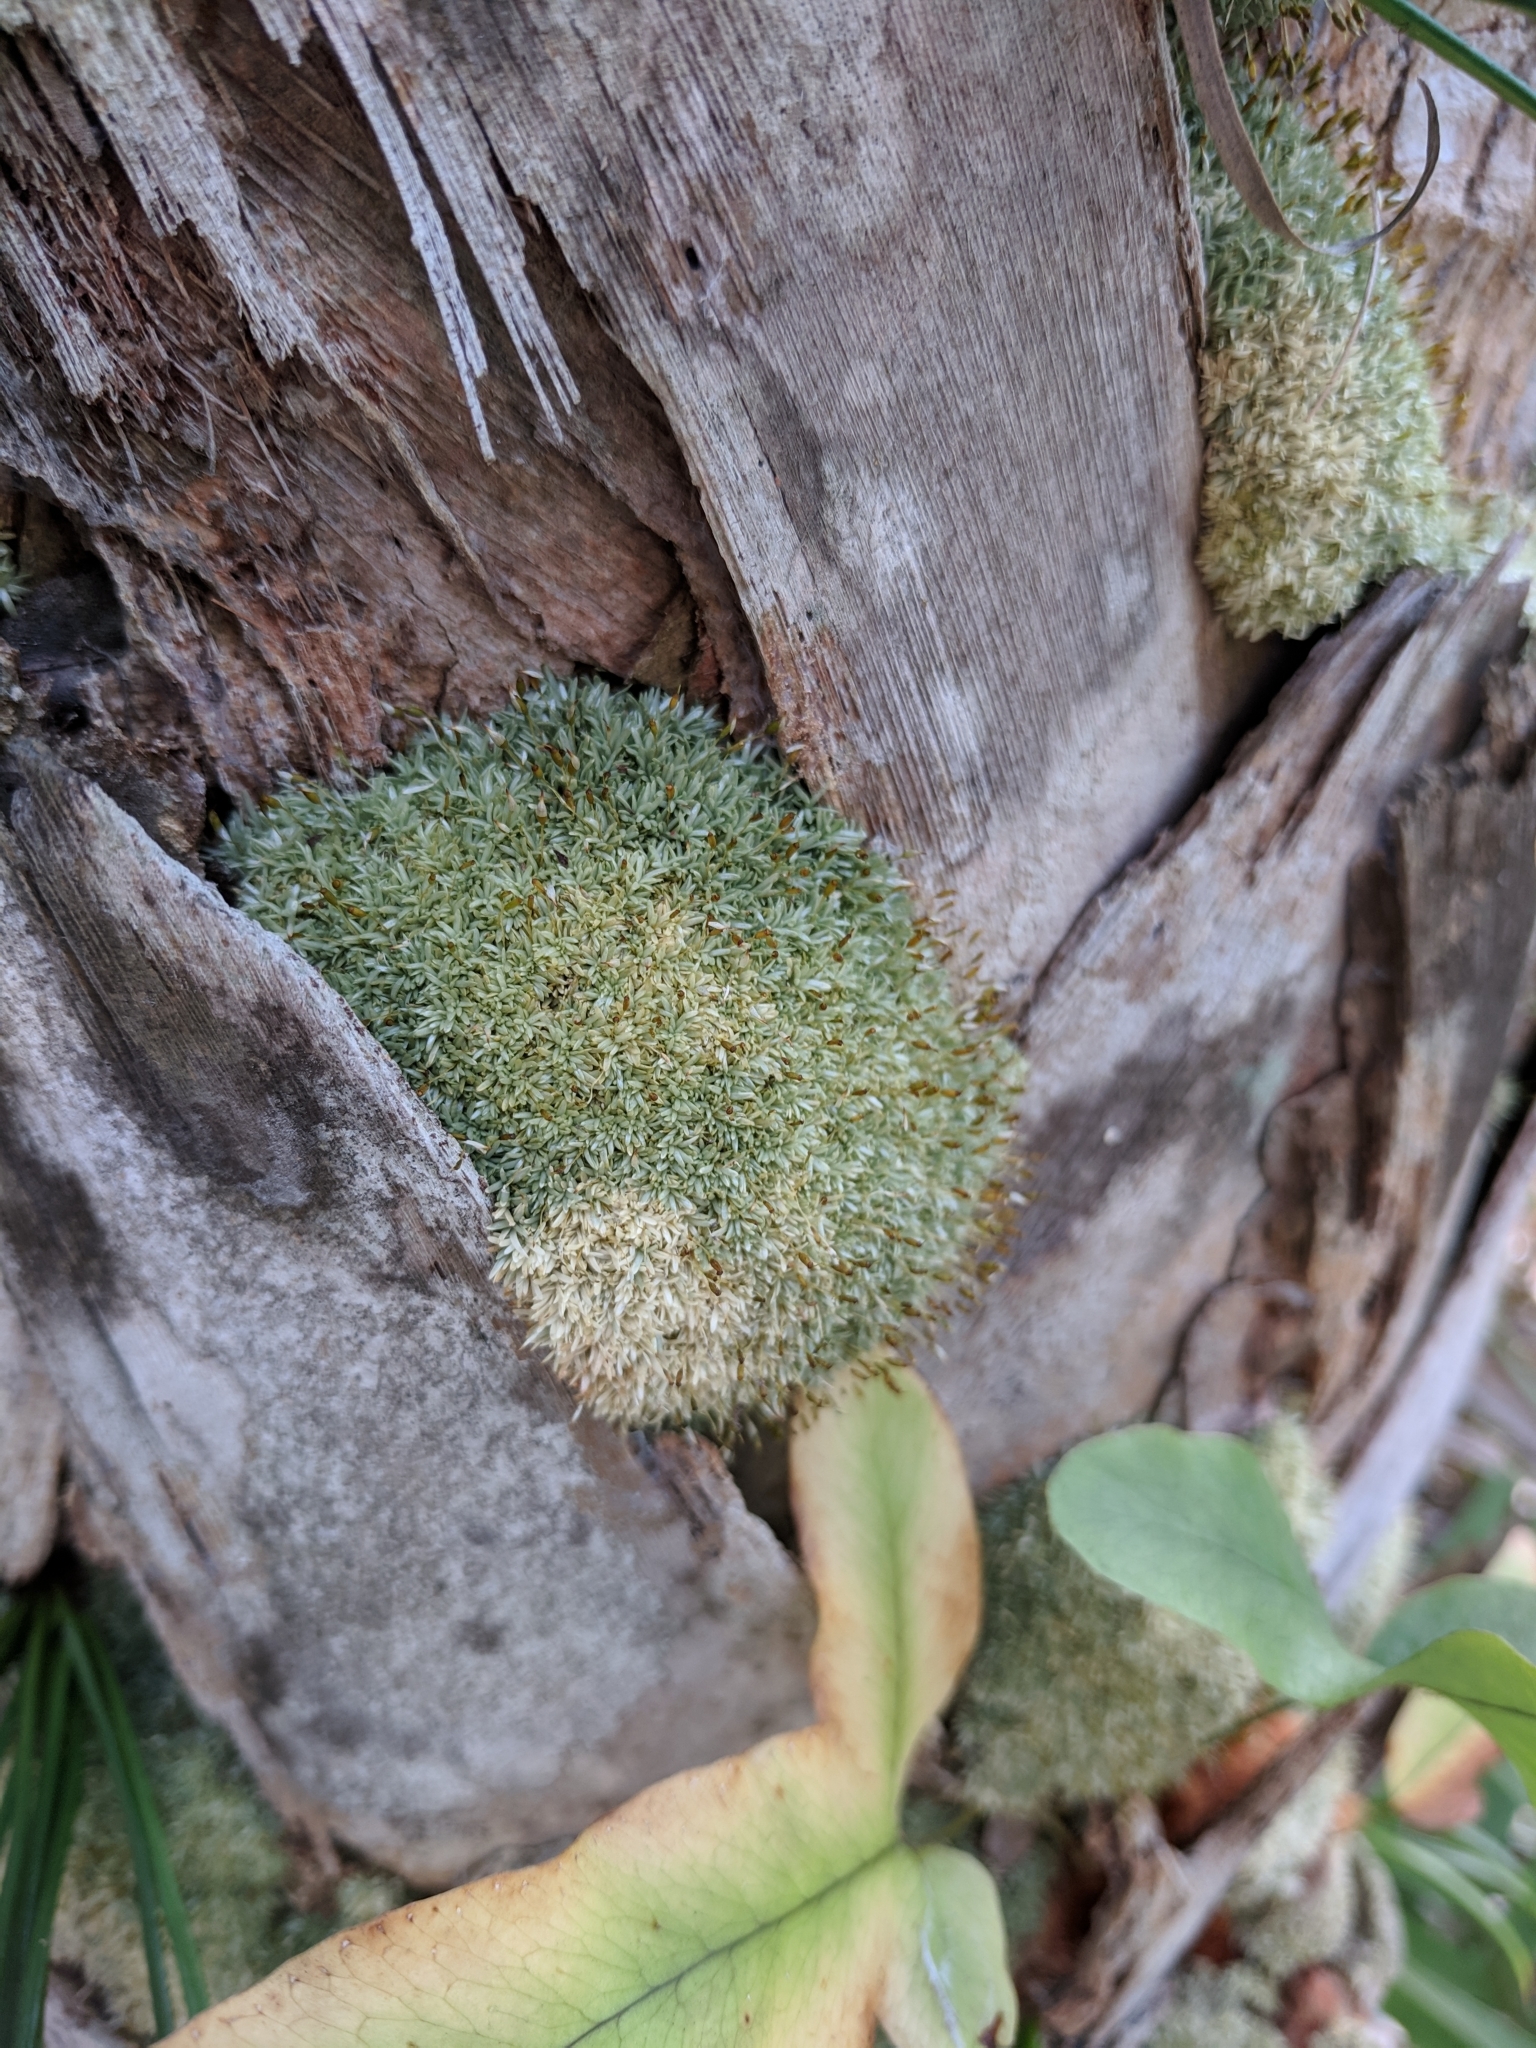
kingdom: Plantae
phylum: Bryophyta
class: Bryopsida
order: Dicranales
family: Octoblepharaceae
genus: Octoblepharum
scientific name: Octoblepharum albidum
